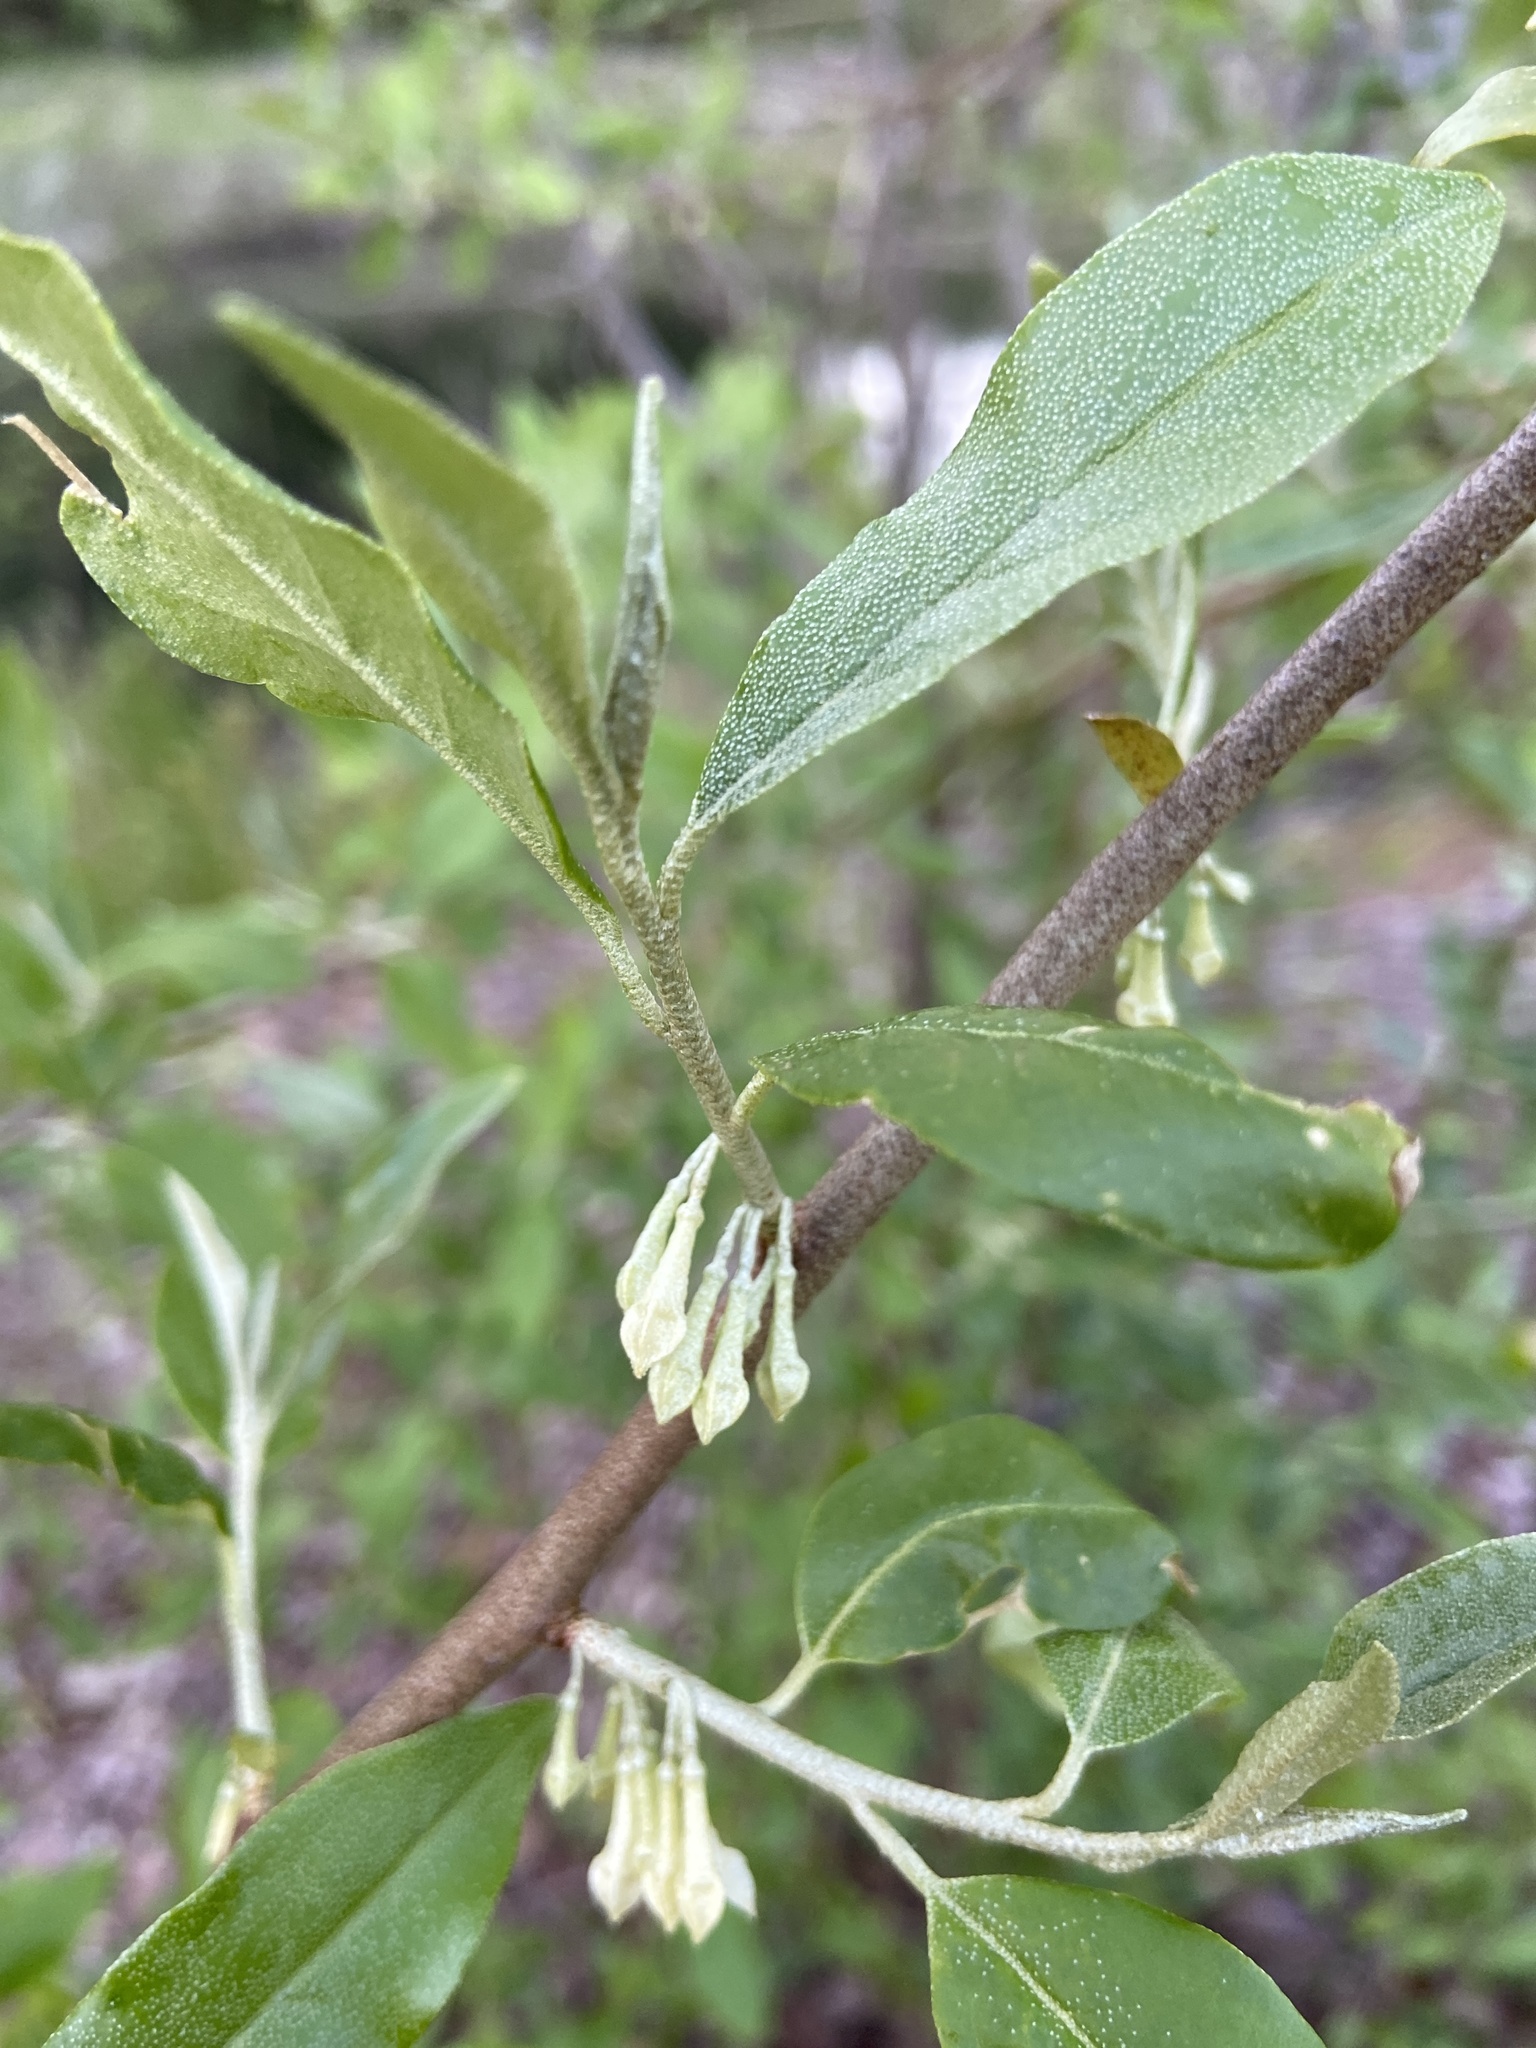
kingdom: Plantae
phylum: Tracheophyta
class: Magnoliopsida
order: Rosales
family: Elaeagnaceae
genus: Elaeagnus
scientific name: Elaeagnus umbellata
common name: Autumn olive
